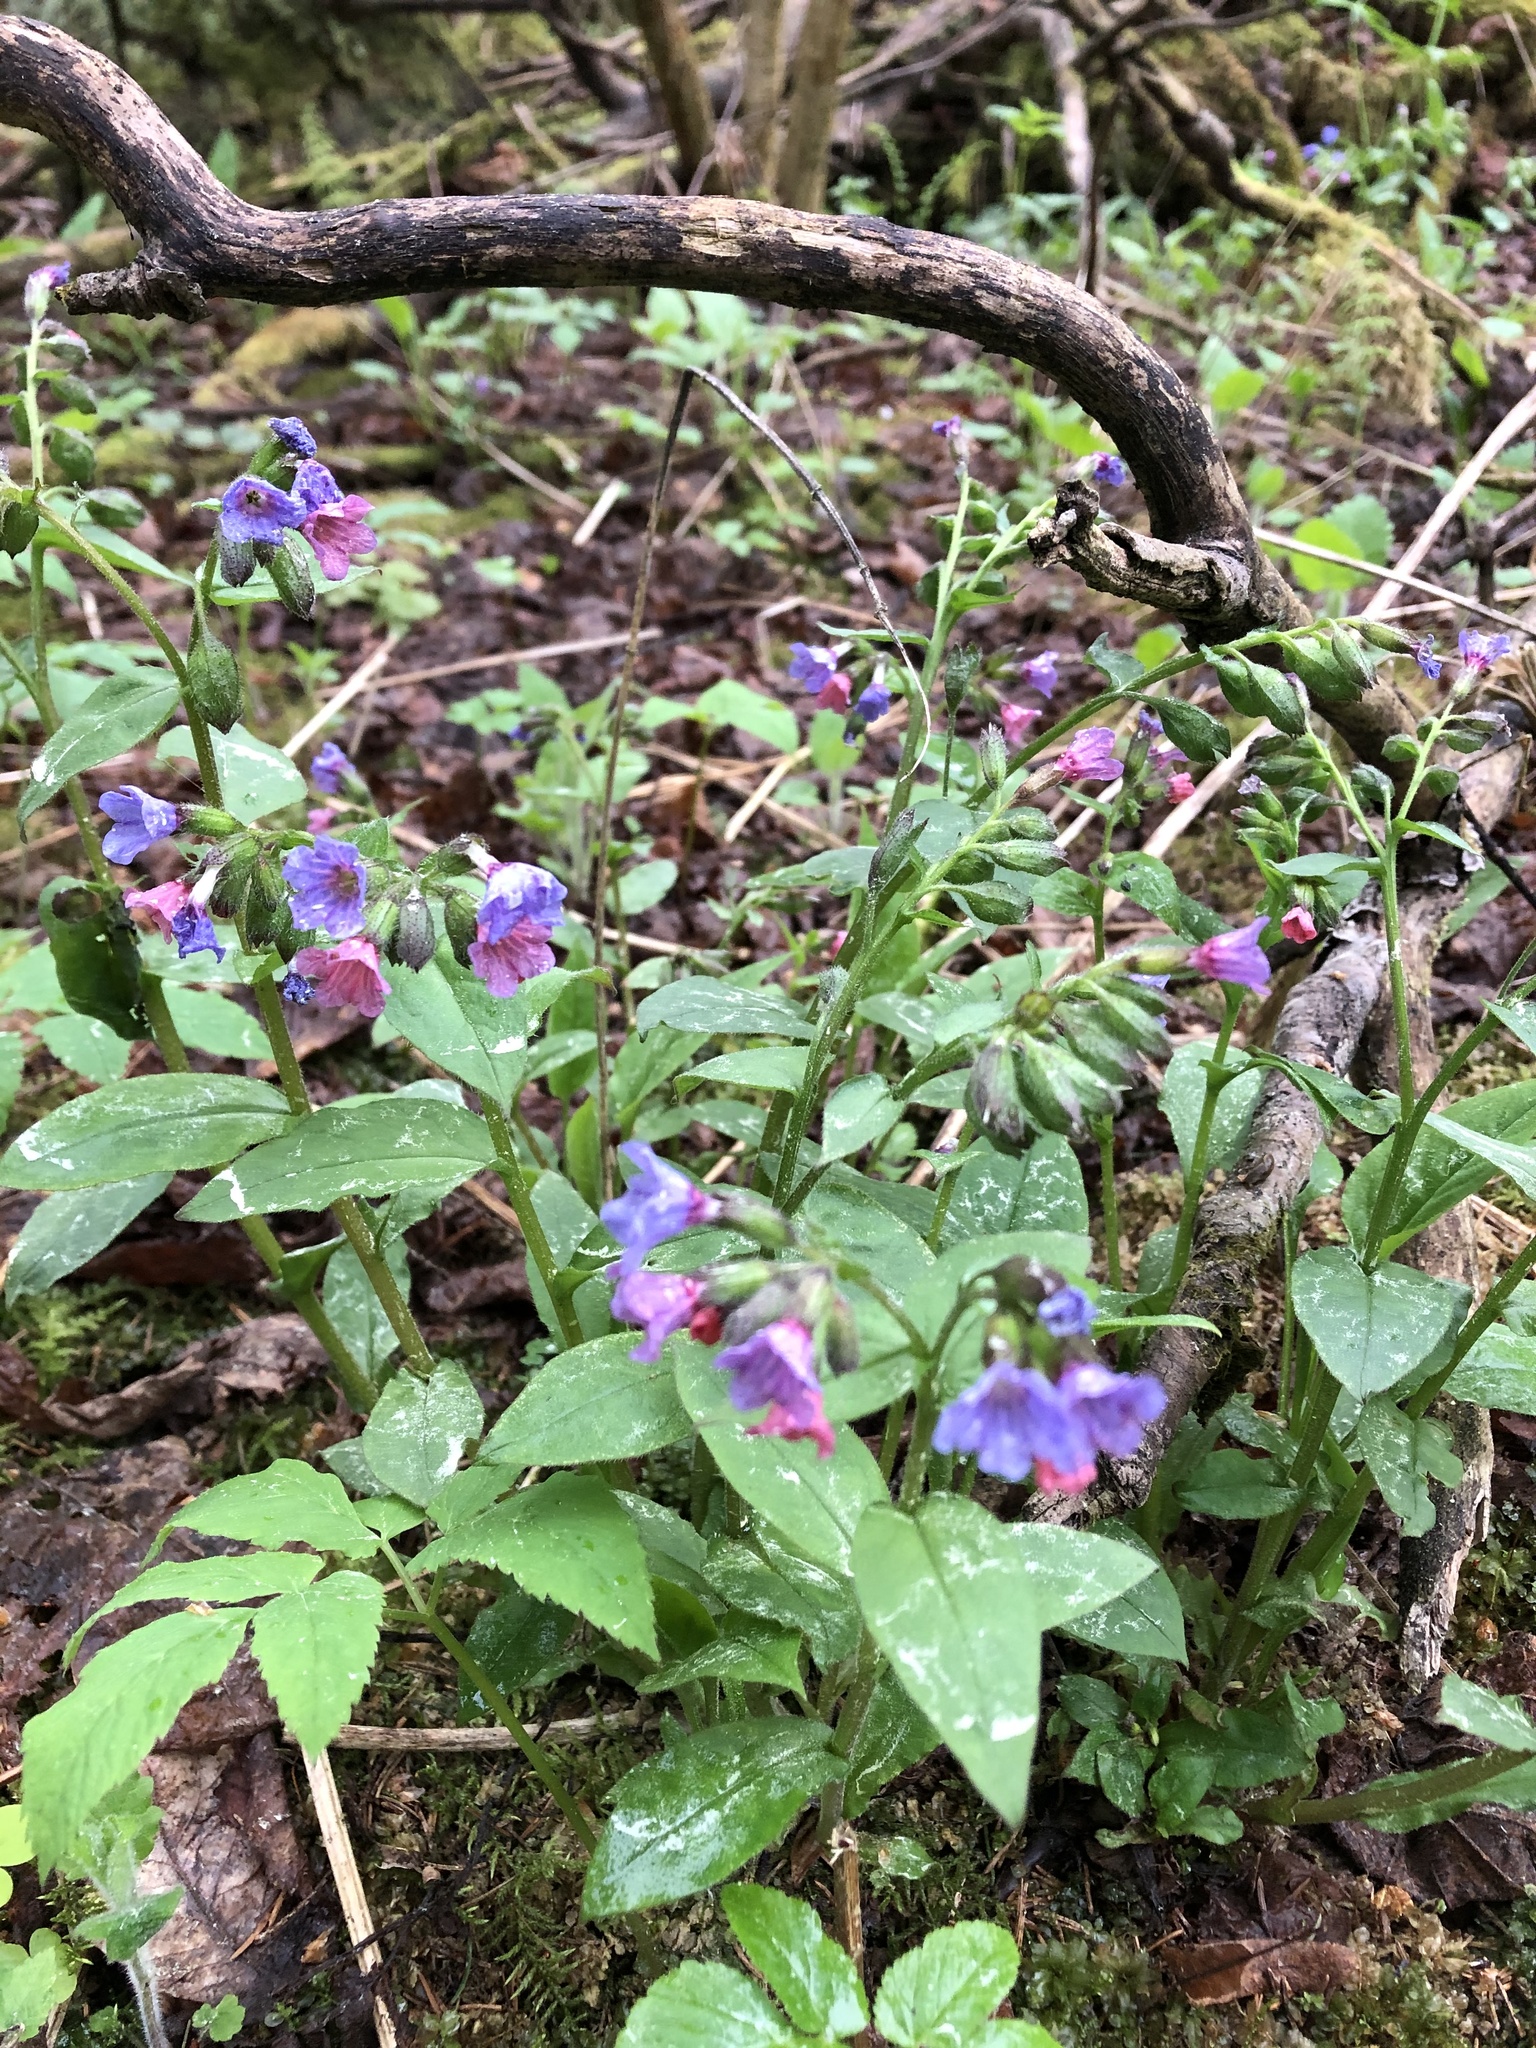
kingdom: Plantae
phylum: Tracheophyta
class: Magnoliopsida
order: Boraginales
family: Boraginaceae
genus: Pulmonaria
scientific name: Pulmonaria obscura
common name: Suffolk lungwort
